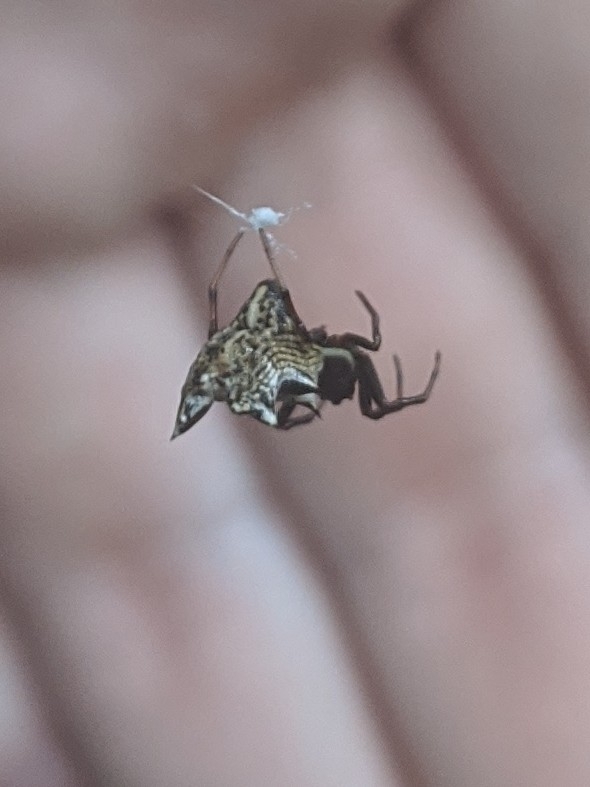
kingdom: Animalia
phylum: Arthropoda
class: Arachnida
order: Araneae
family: Araneidae
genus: Micrathena
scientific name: Micrathena gracilis
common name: Orb weavers
